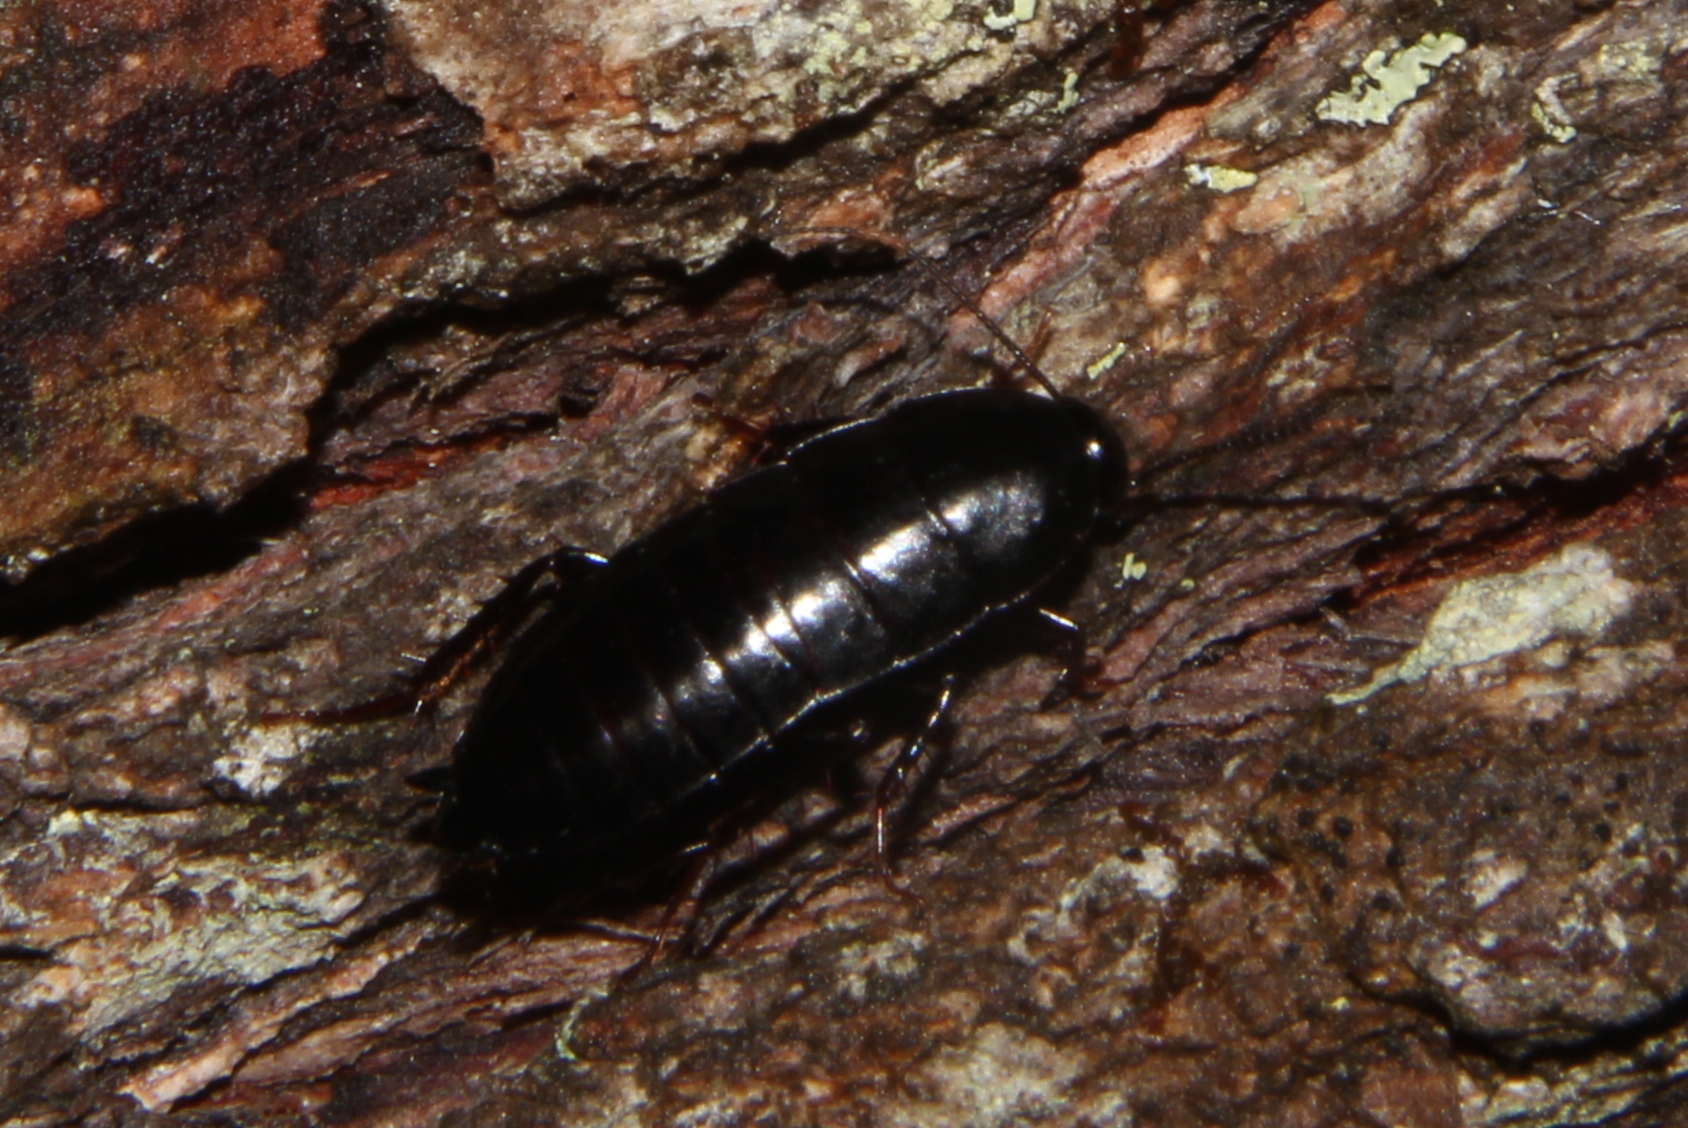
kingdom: Animalia
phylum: Arthropoda
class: Insecta
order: Blattodea
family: Tryonicidae
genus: Tryonicus
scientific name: Tryonicus parvus
